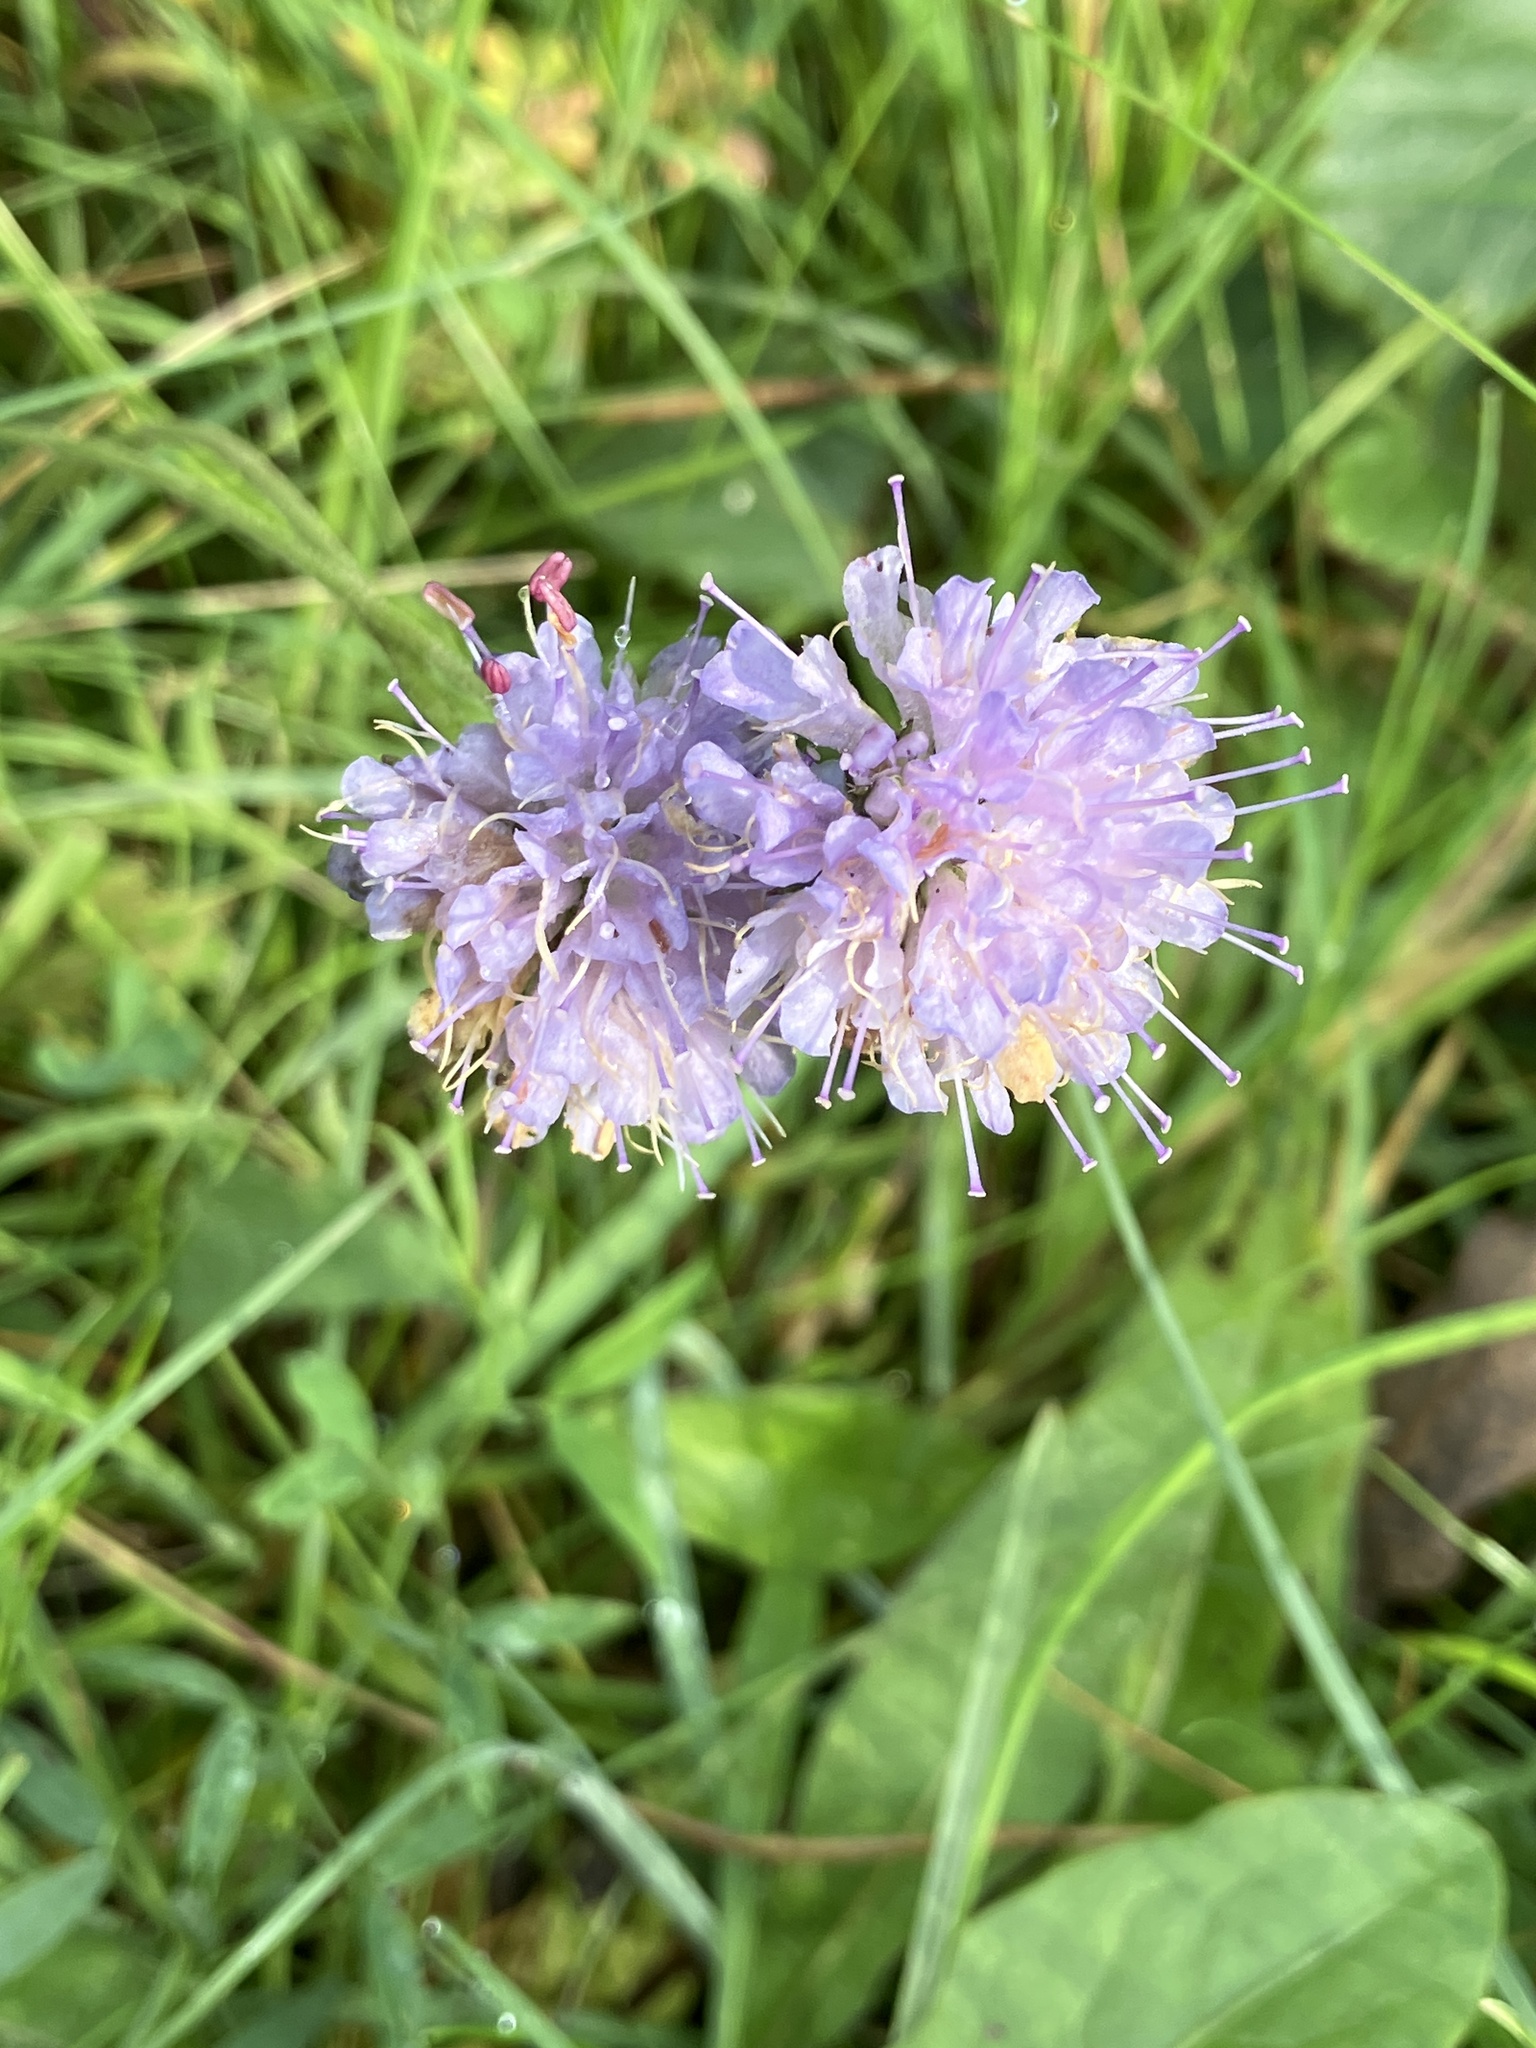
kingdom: Plantae
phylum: Tracheophyta
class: Magnoliopsida
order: Dipsacales
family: Caprifoliaceae
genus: Succisa
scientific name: Succisa pratensis
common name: Devil's-bit
